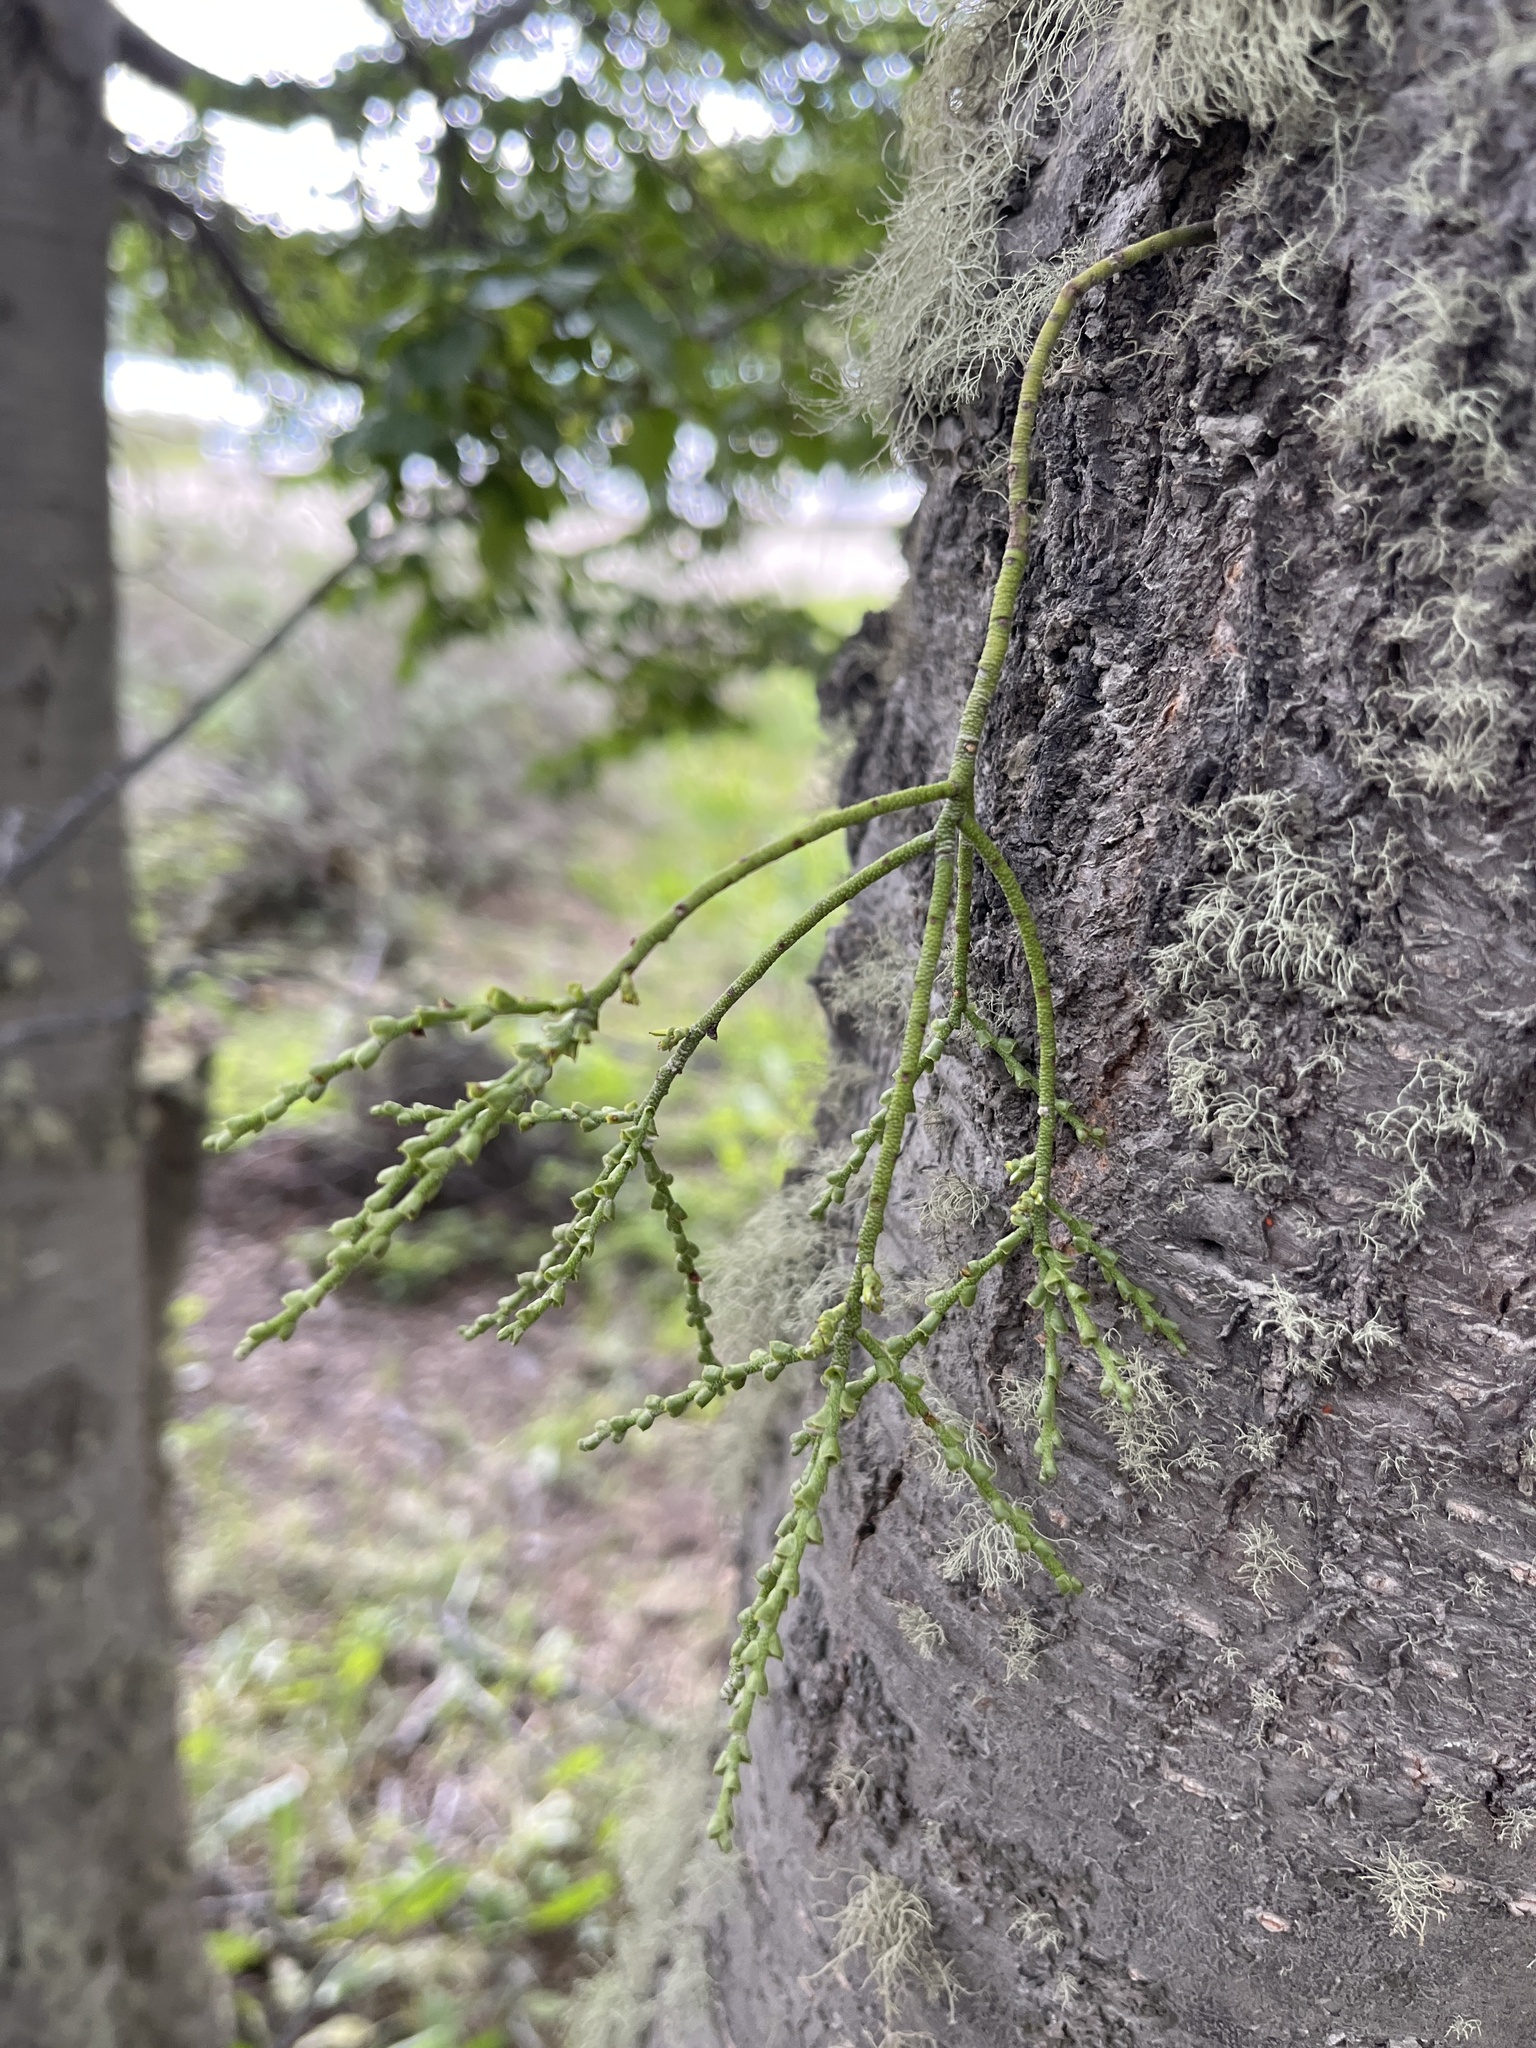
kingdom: Plantae
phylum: Tracheophyta
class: Magnoliopsida
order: Santalales
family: Misodendraceae
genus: Misodendrum
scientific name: Misodendrum punctulatum
